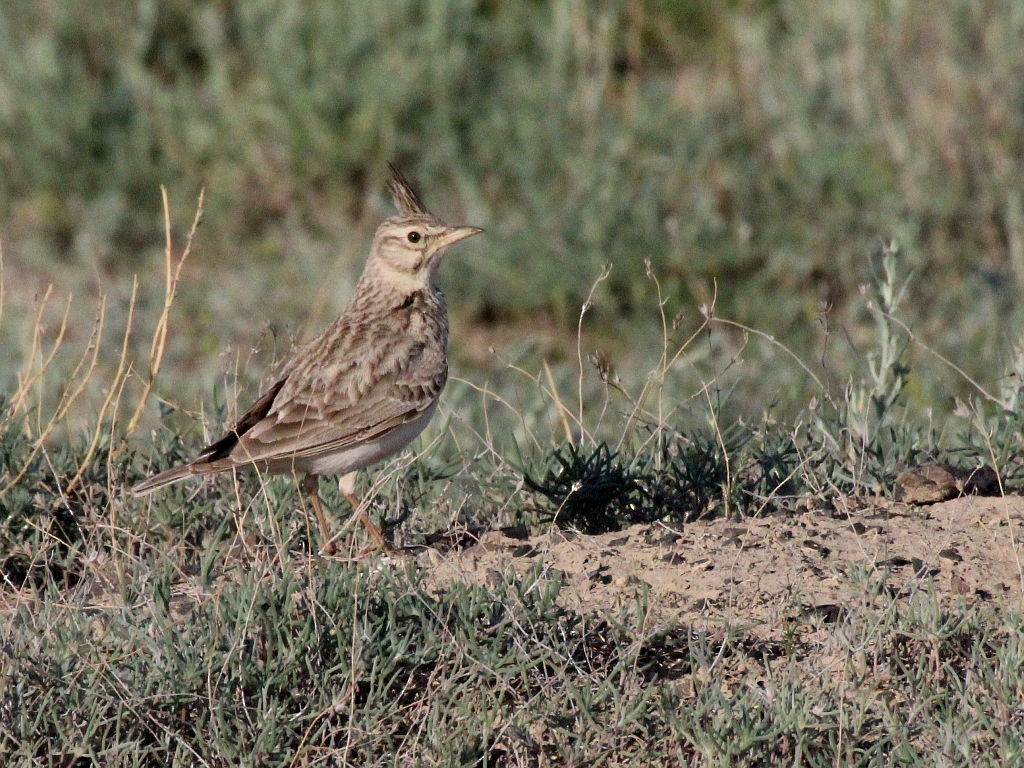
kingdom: Animalia
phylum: Chordata
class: Aves
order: Passeriformes
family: Alaudidae
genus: Galerida
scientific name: Galerida cristata
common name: Crested lark
